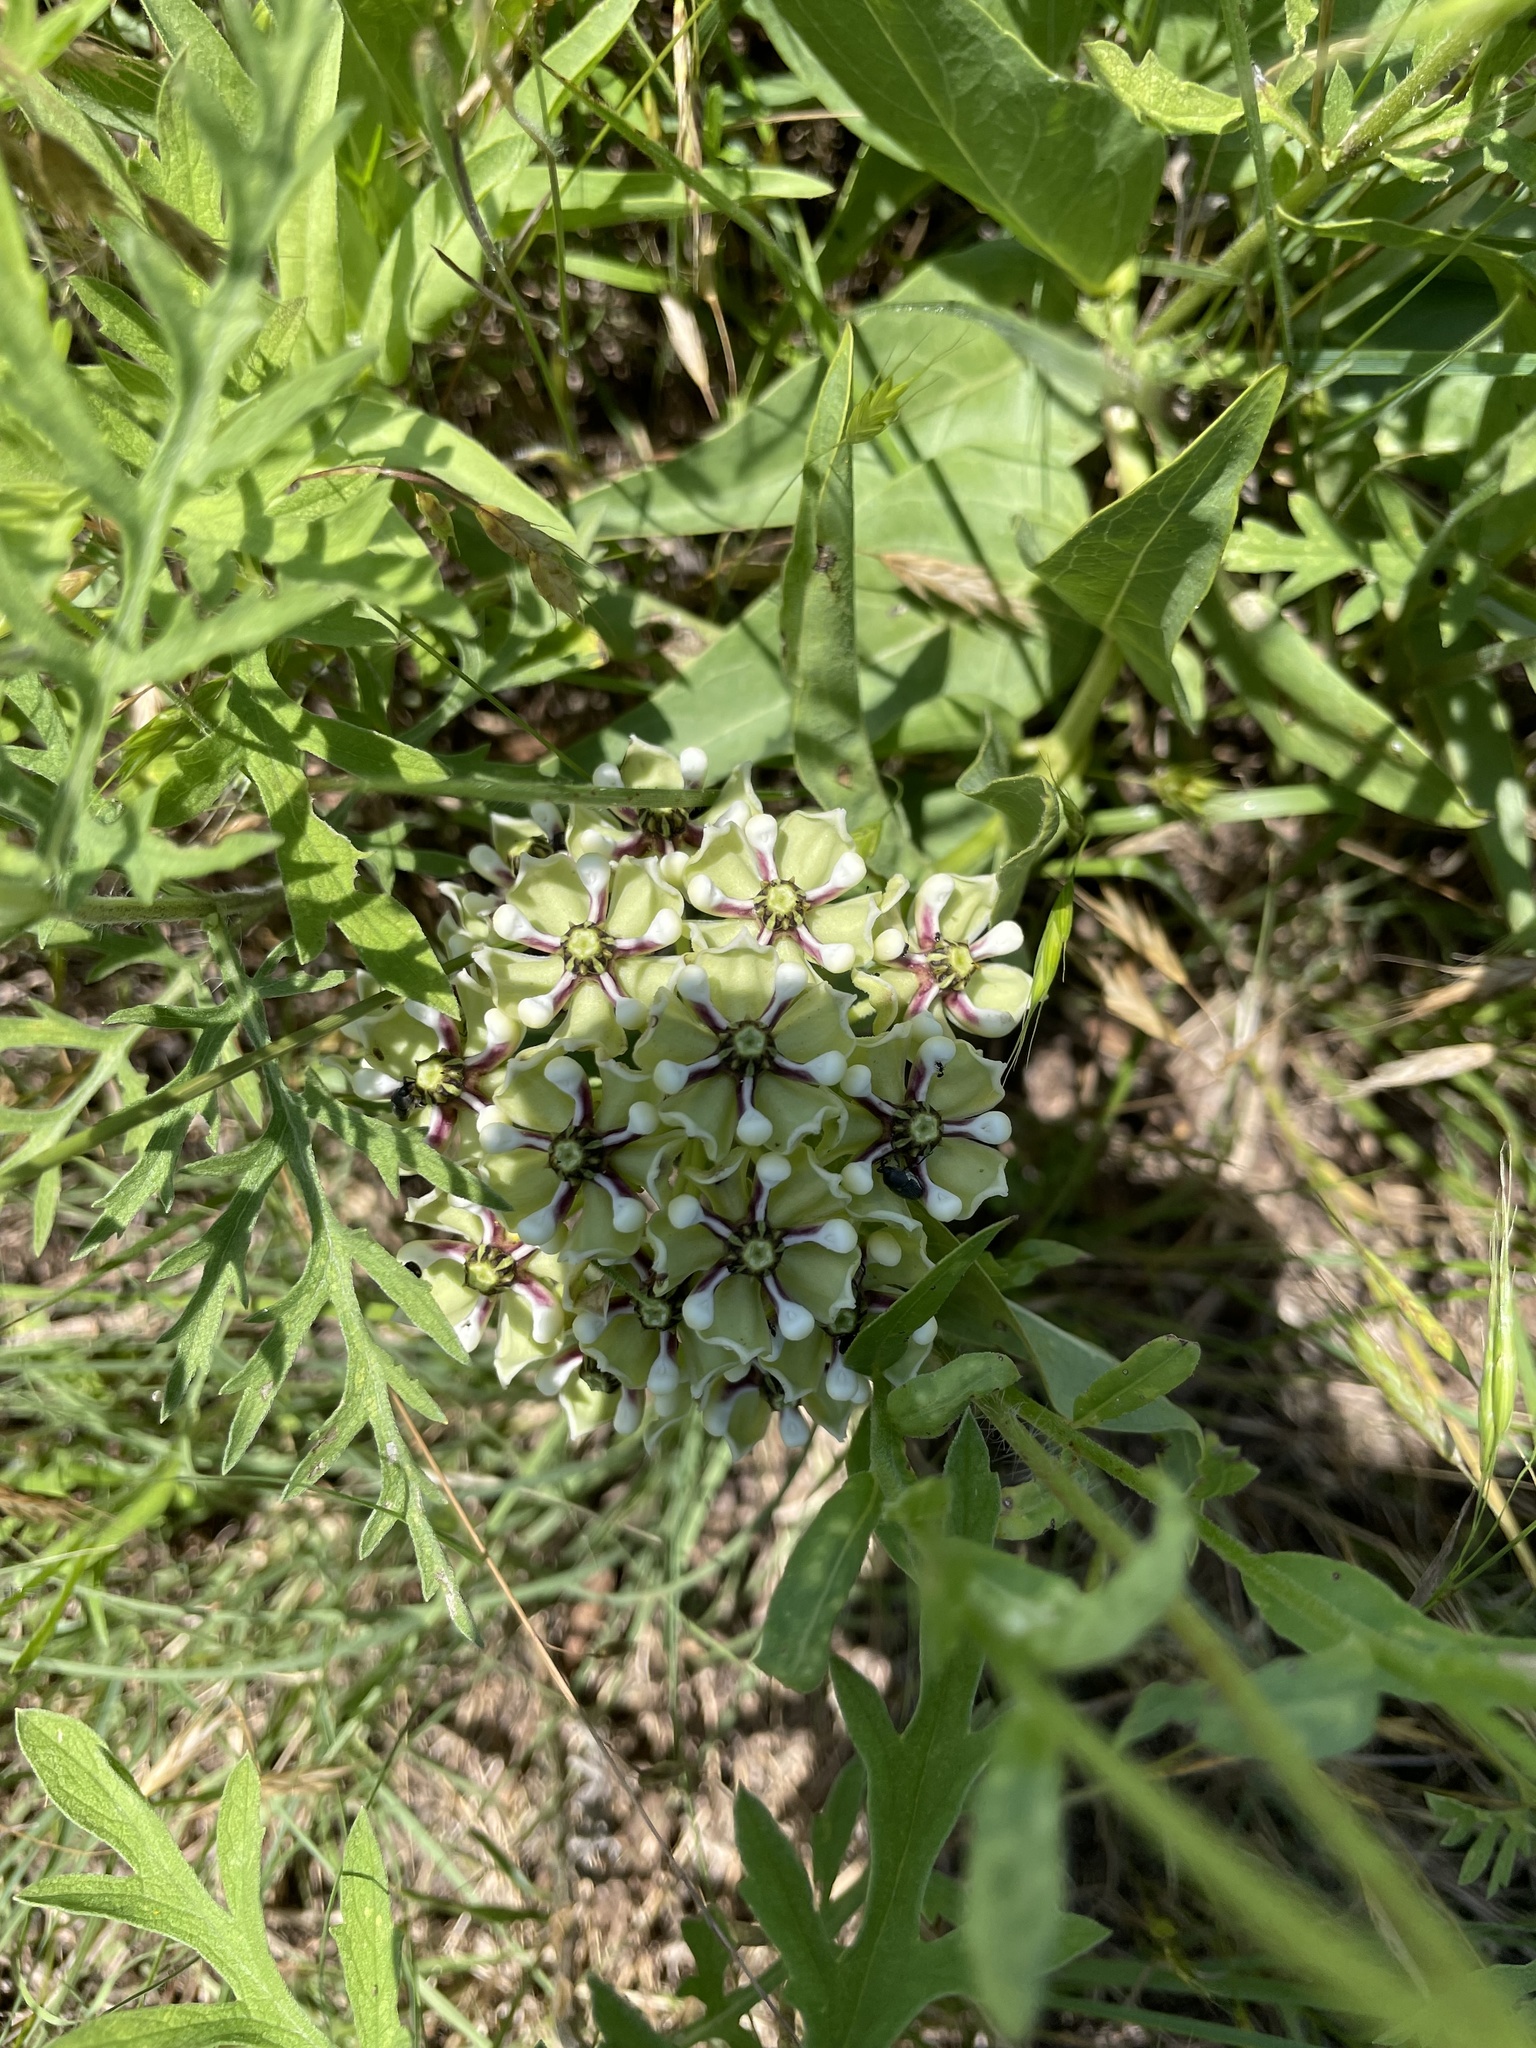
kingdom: Plantae
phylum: Tracheophyta
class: Magnoliopsida
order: Gentianales
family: Apocynaceae
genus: Asclepias
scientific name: Asclepias asperula
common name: Antelope horns
